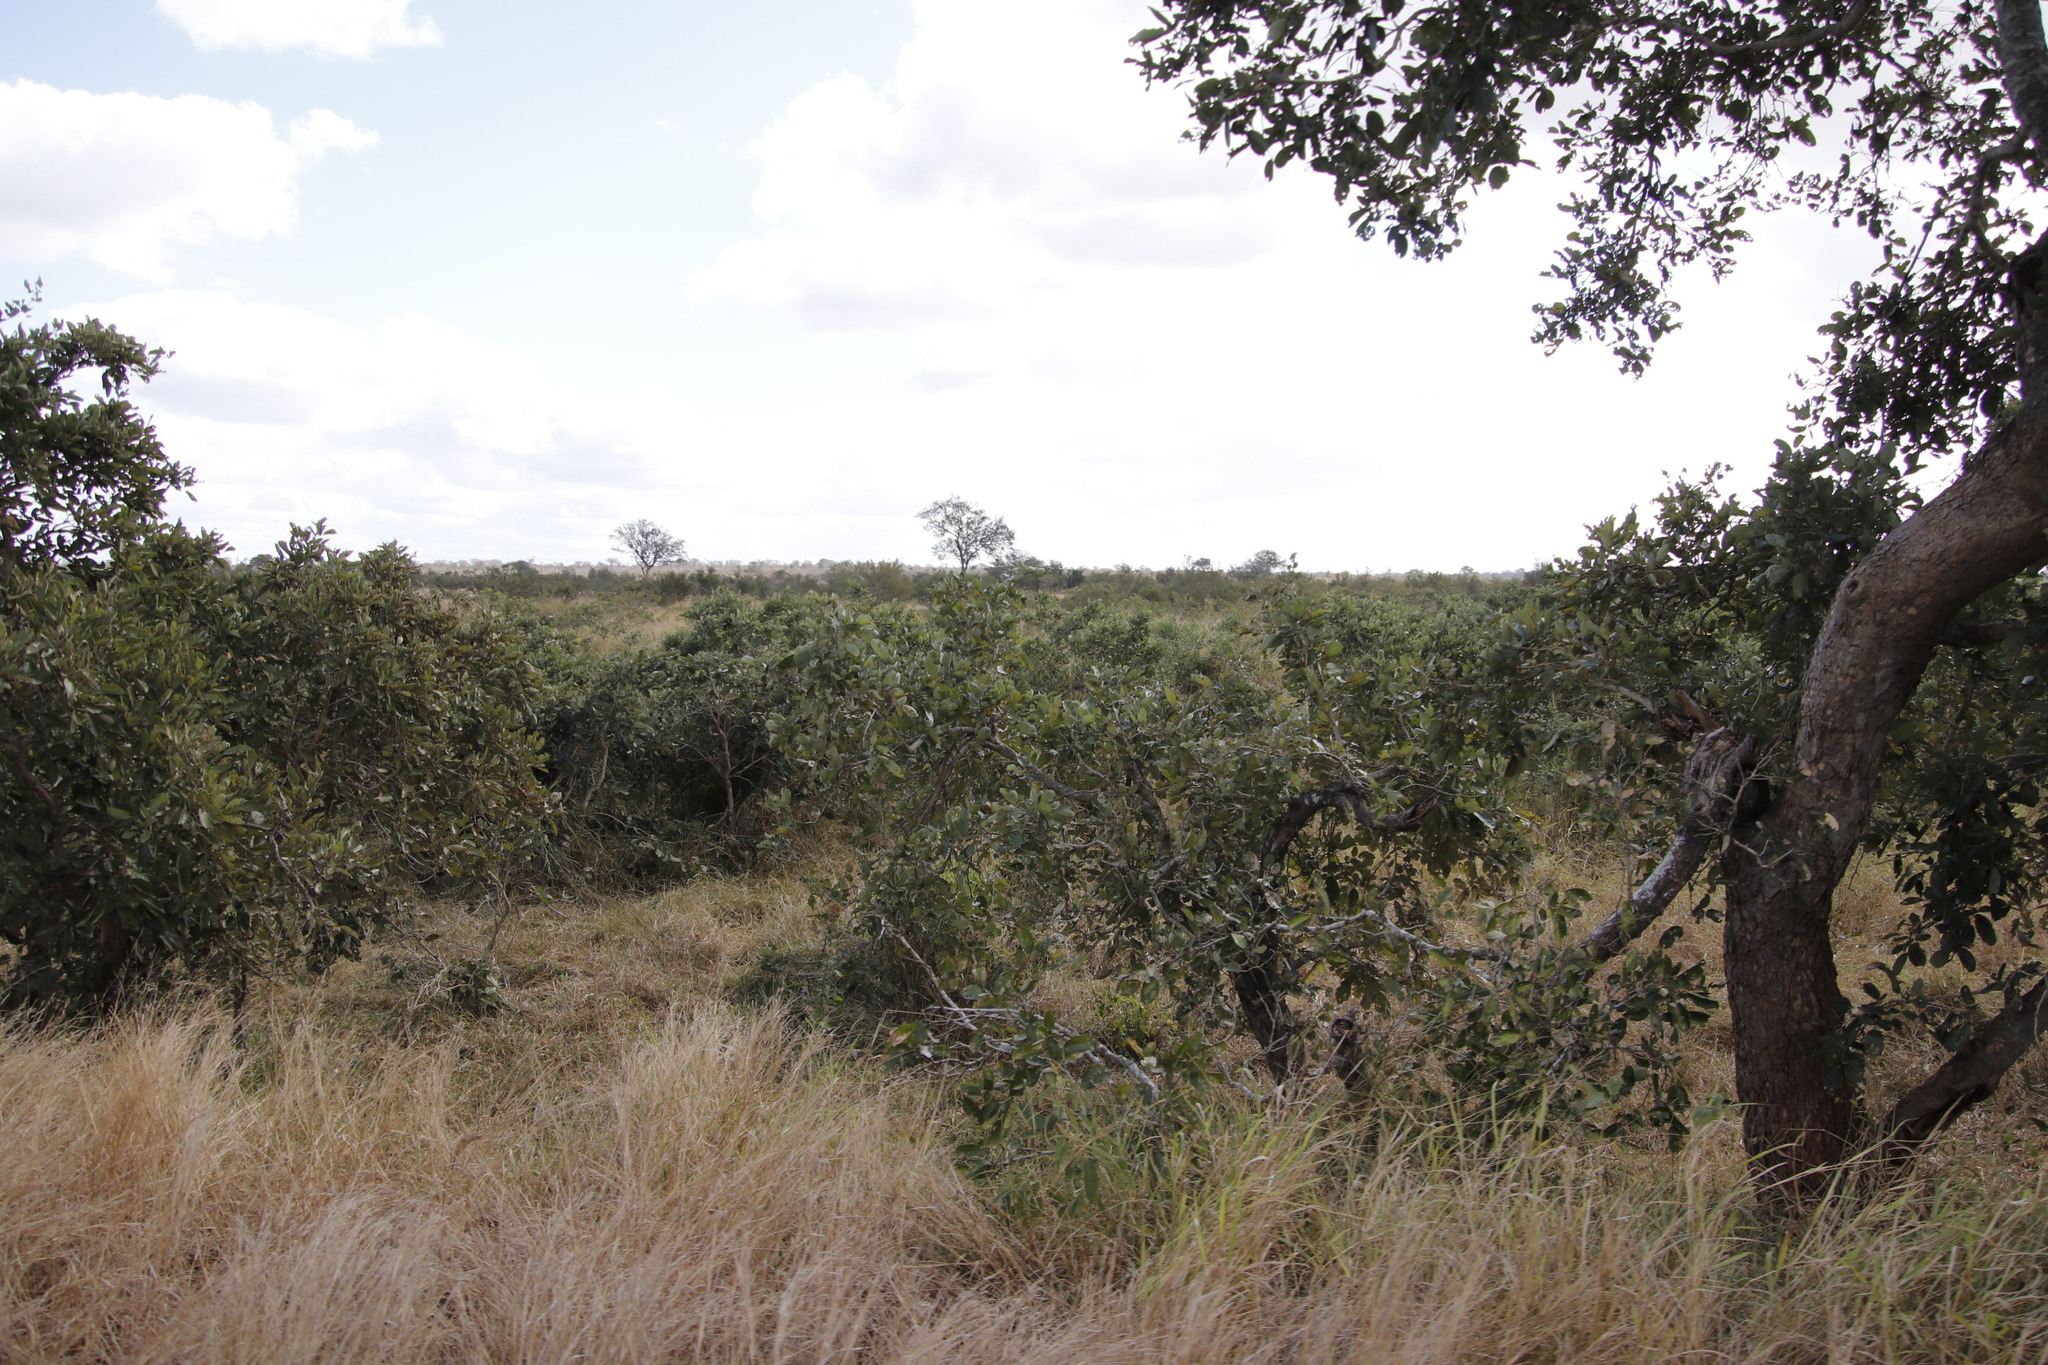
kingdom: Plantae
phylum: Tracheophyta
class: Magnoliopsida
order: Fabales
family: Fabaceae
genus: Philenoptera
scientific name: Philenoptera violacea
